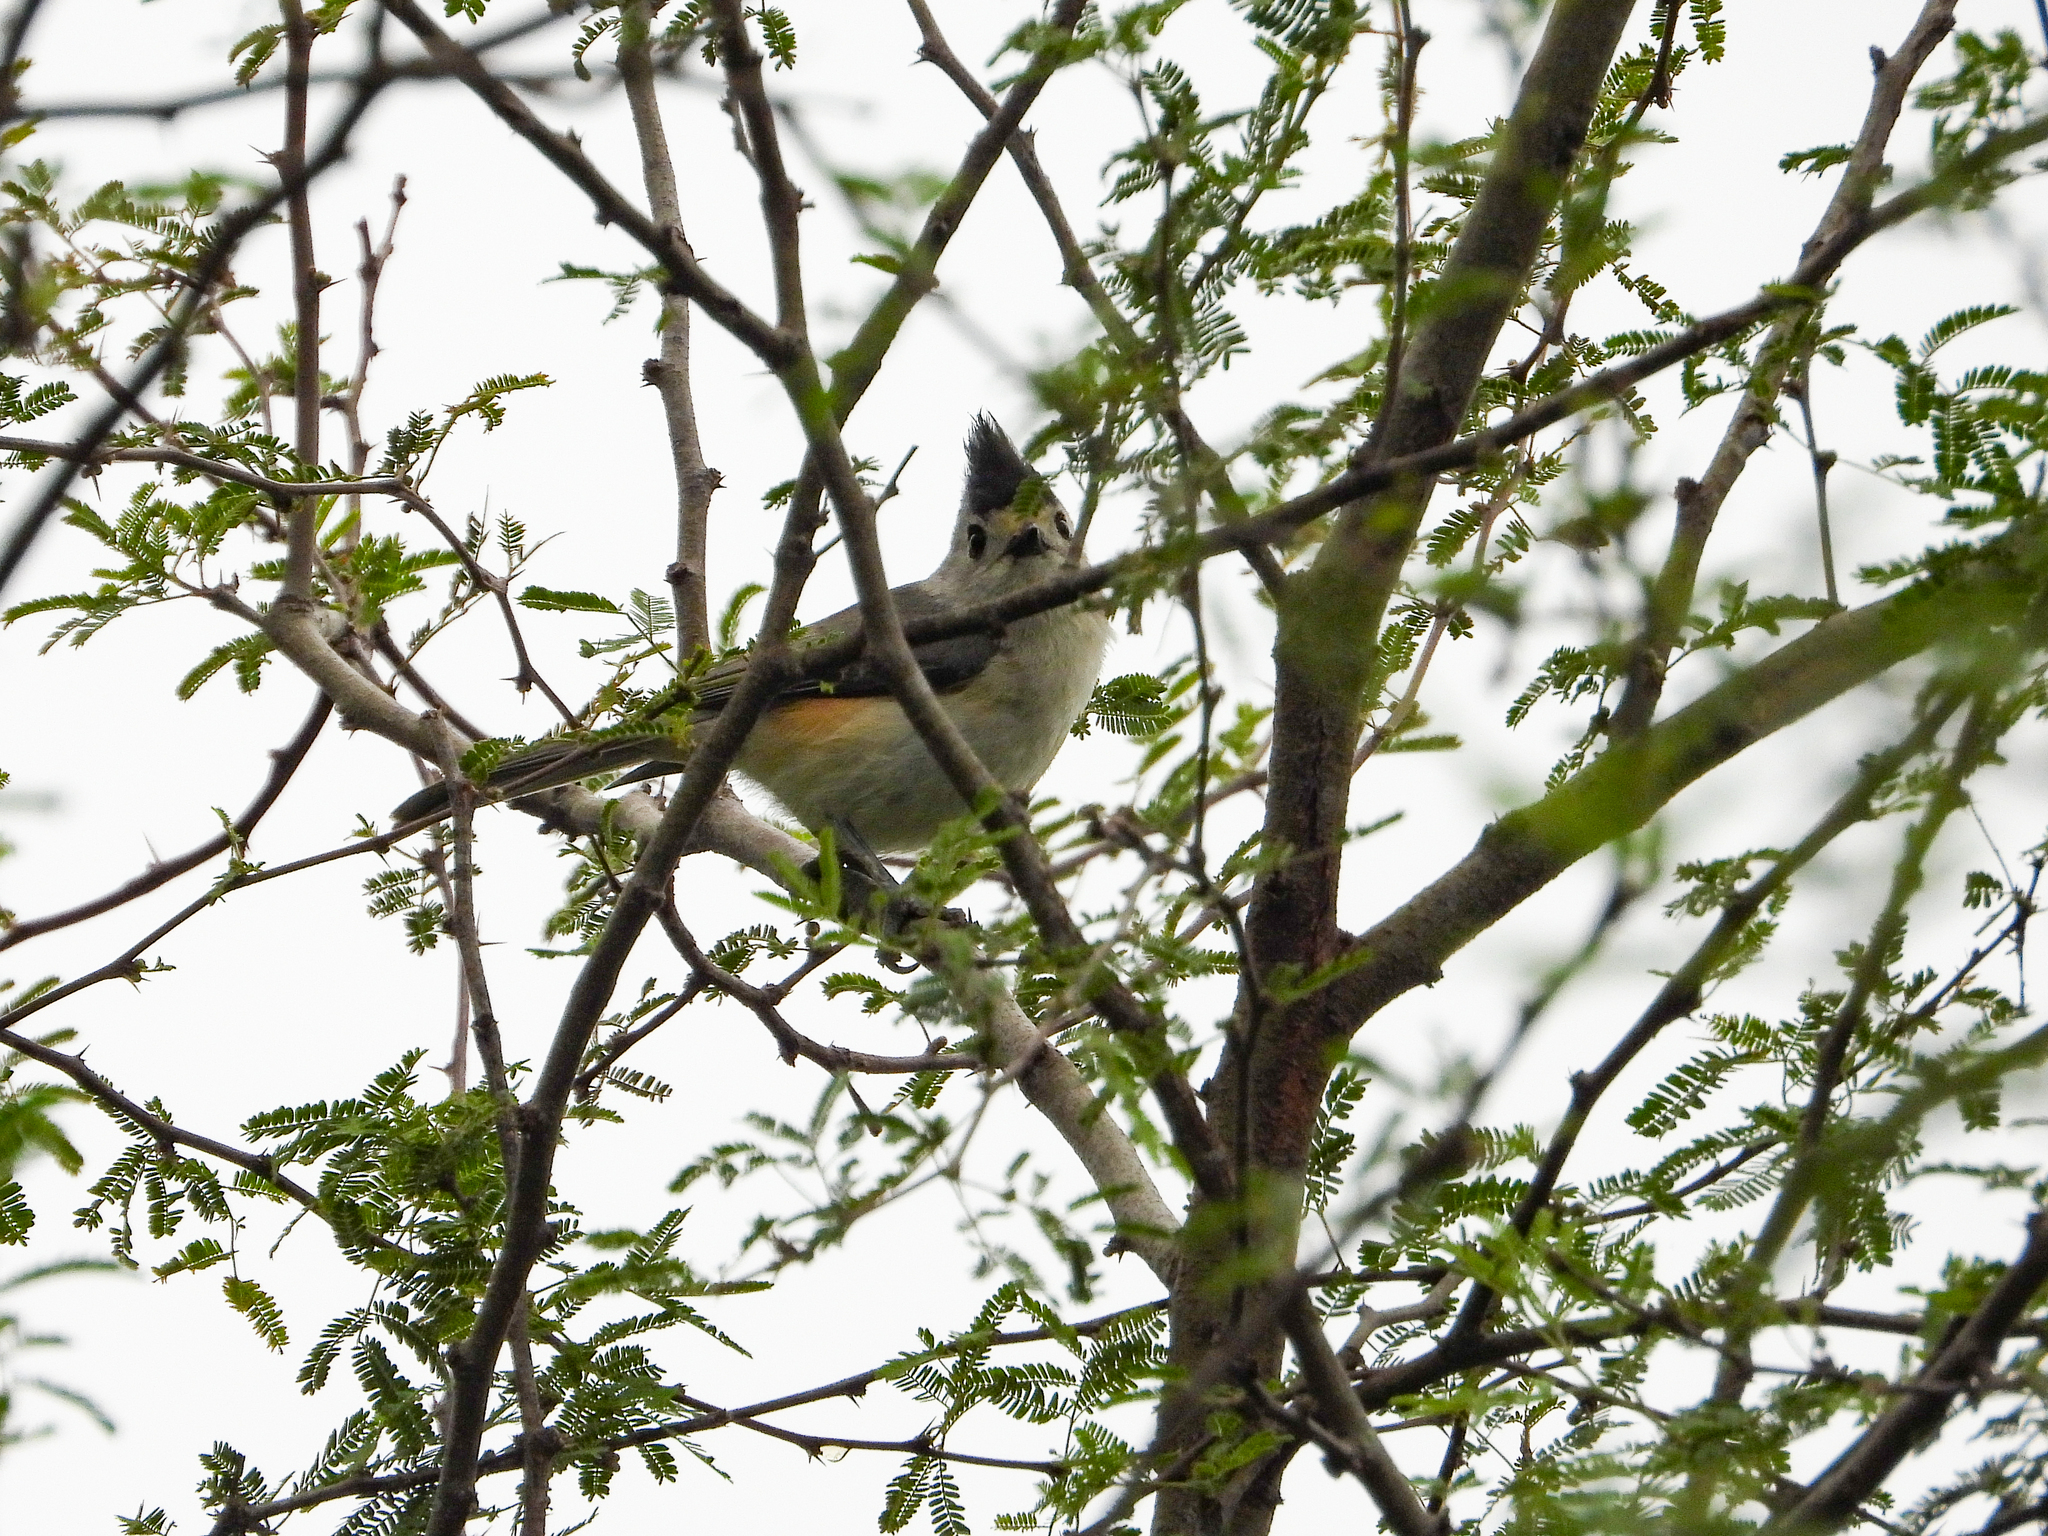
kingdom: Animalia
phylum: Chordata
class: Aves
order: Passeriformes
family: Paridae
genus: Baeolophus
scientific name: Baeolophus atricristatus
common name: Black-crested titmouse
